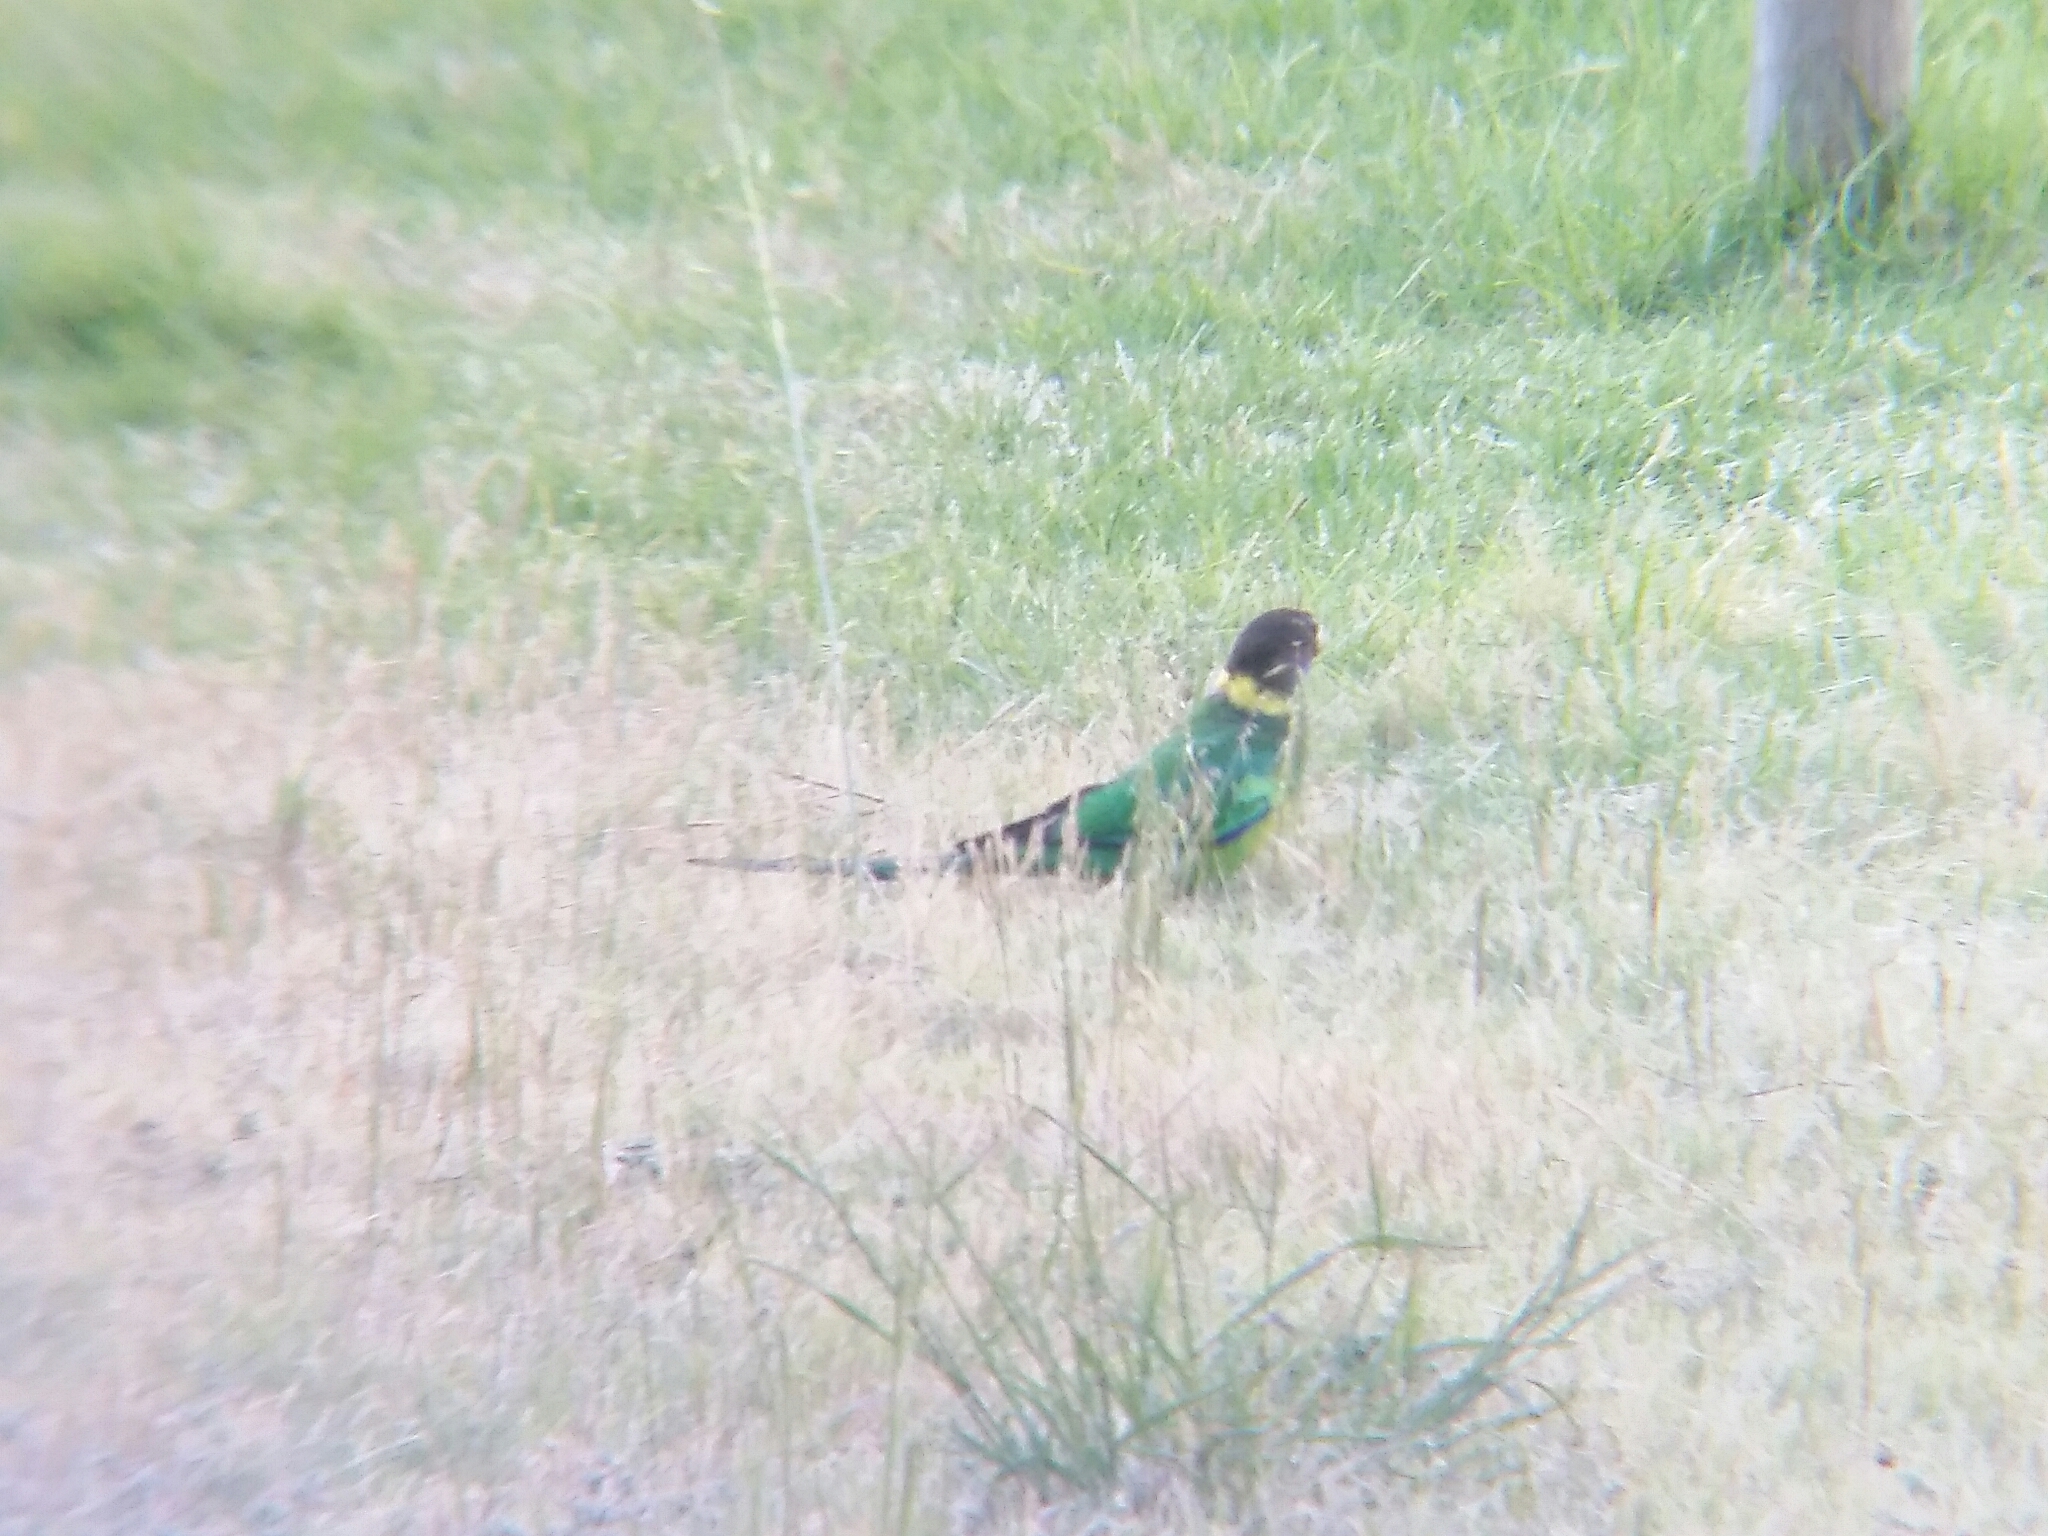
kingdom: Animalia
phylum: Chordata
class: Aves
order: Psittaciformes
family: Psittacidae
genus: Barnardius
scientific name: Barnardius zonarius
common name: Australian ringneck
